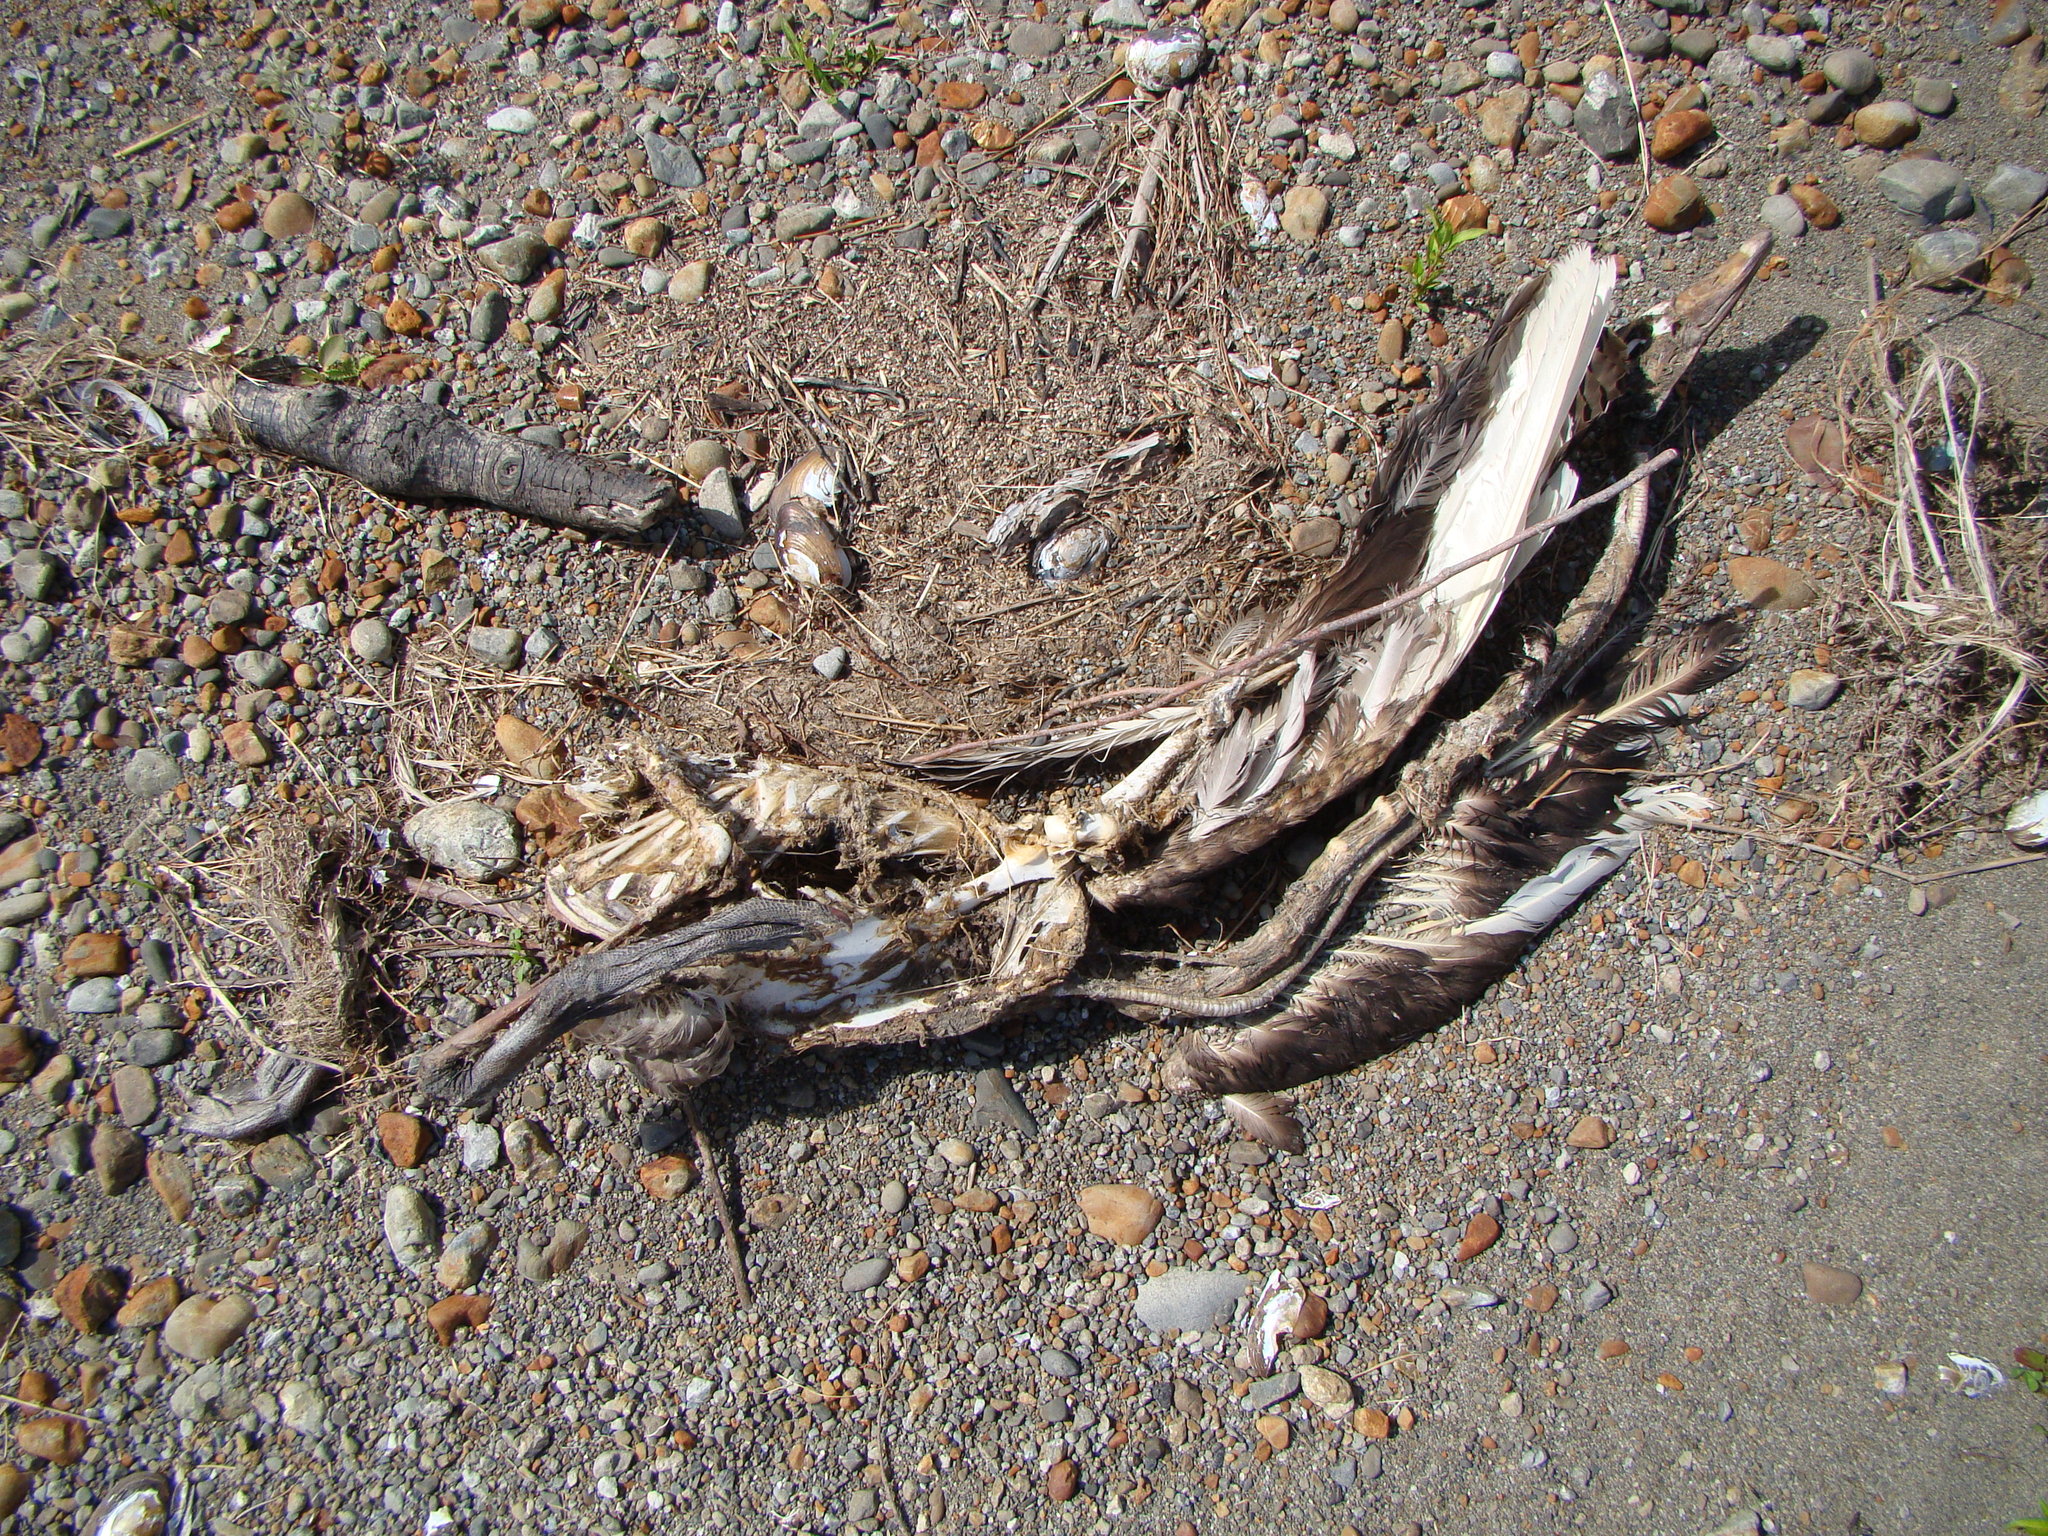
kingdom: Animalia
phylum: Chordata
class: Aves
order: Anseriformes
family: Anatidae
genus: Cygnus
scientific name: Cygnus atratus
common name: Black swan
